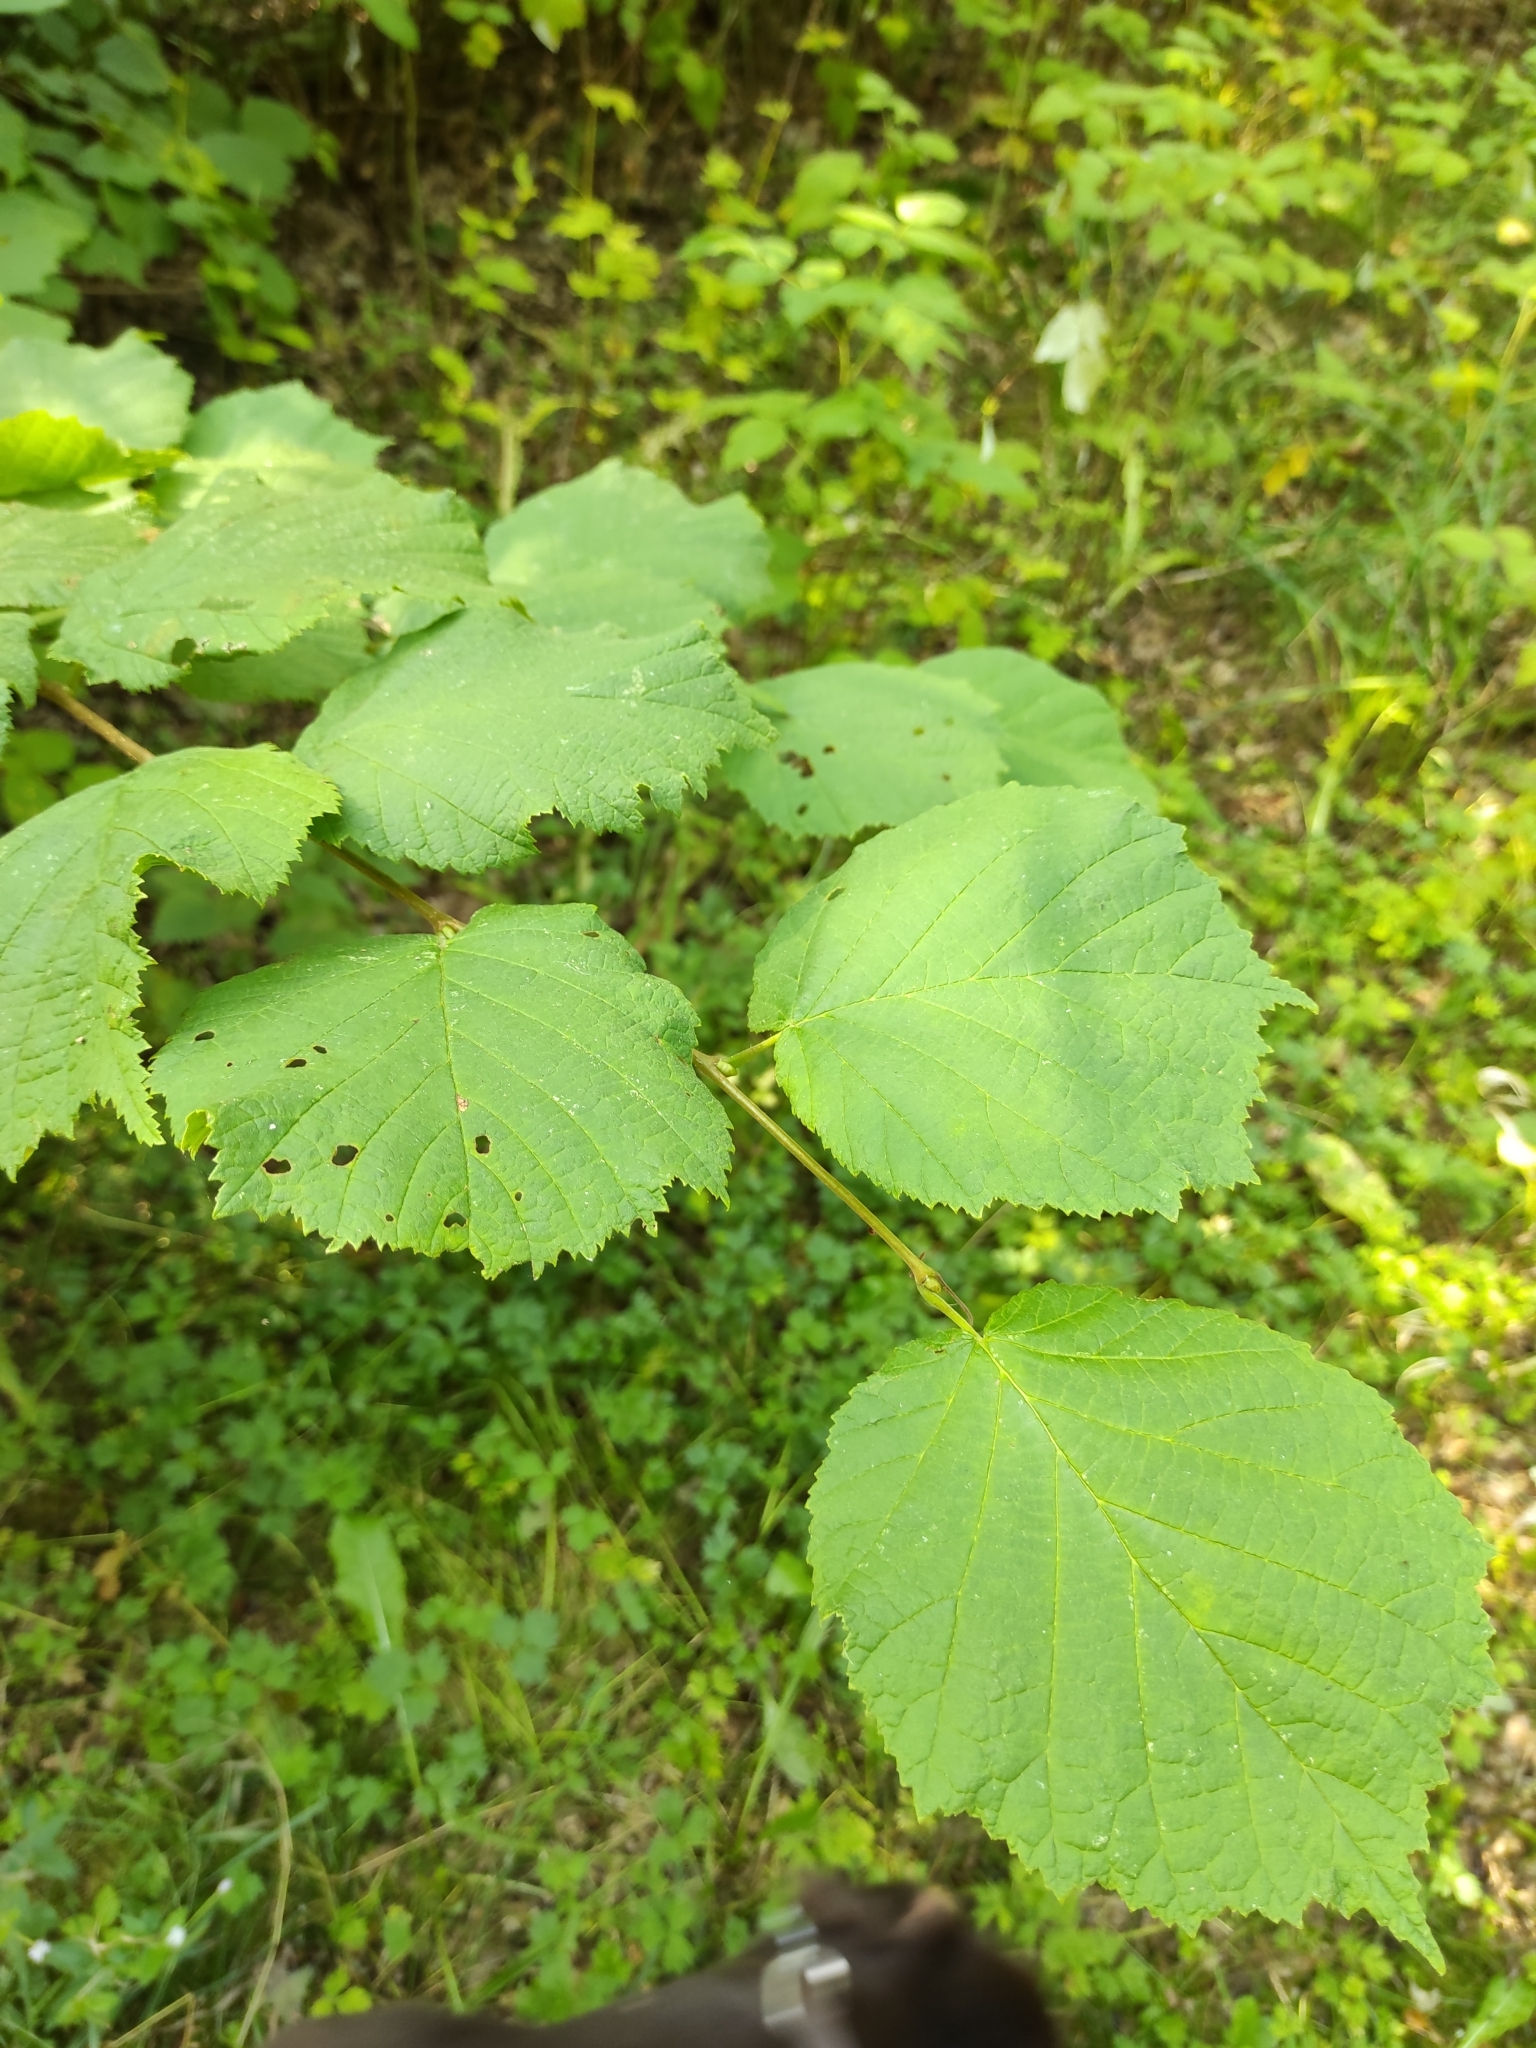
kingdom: Plantae
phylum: Tracheophyta
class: Magnoliopsida
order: Fagales
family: Betulaceae
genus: Corylus
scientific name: Corylus avellana
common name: European hazel
